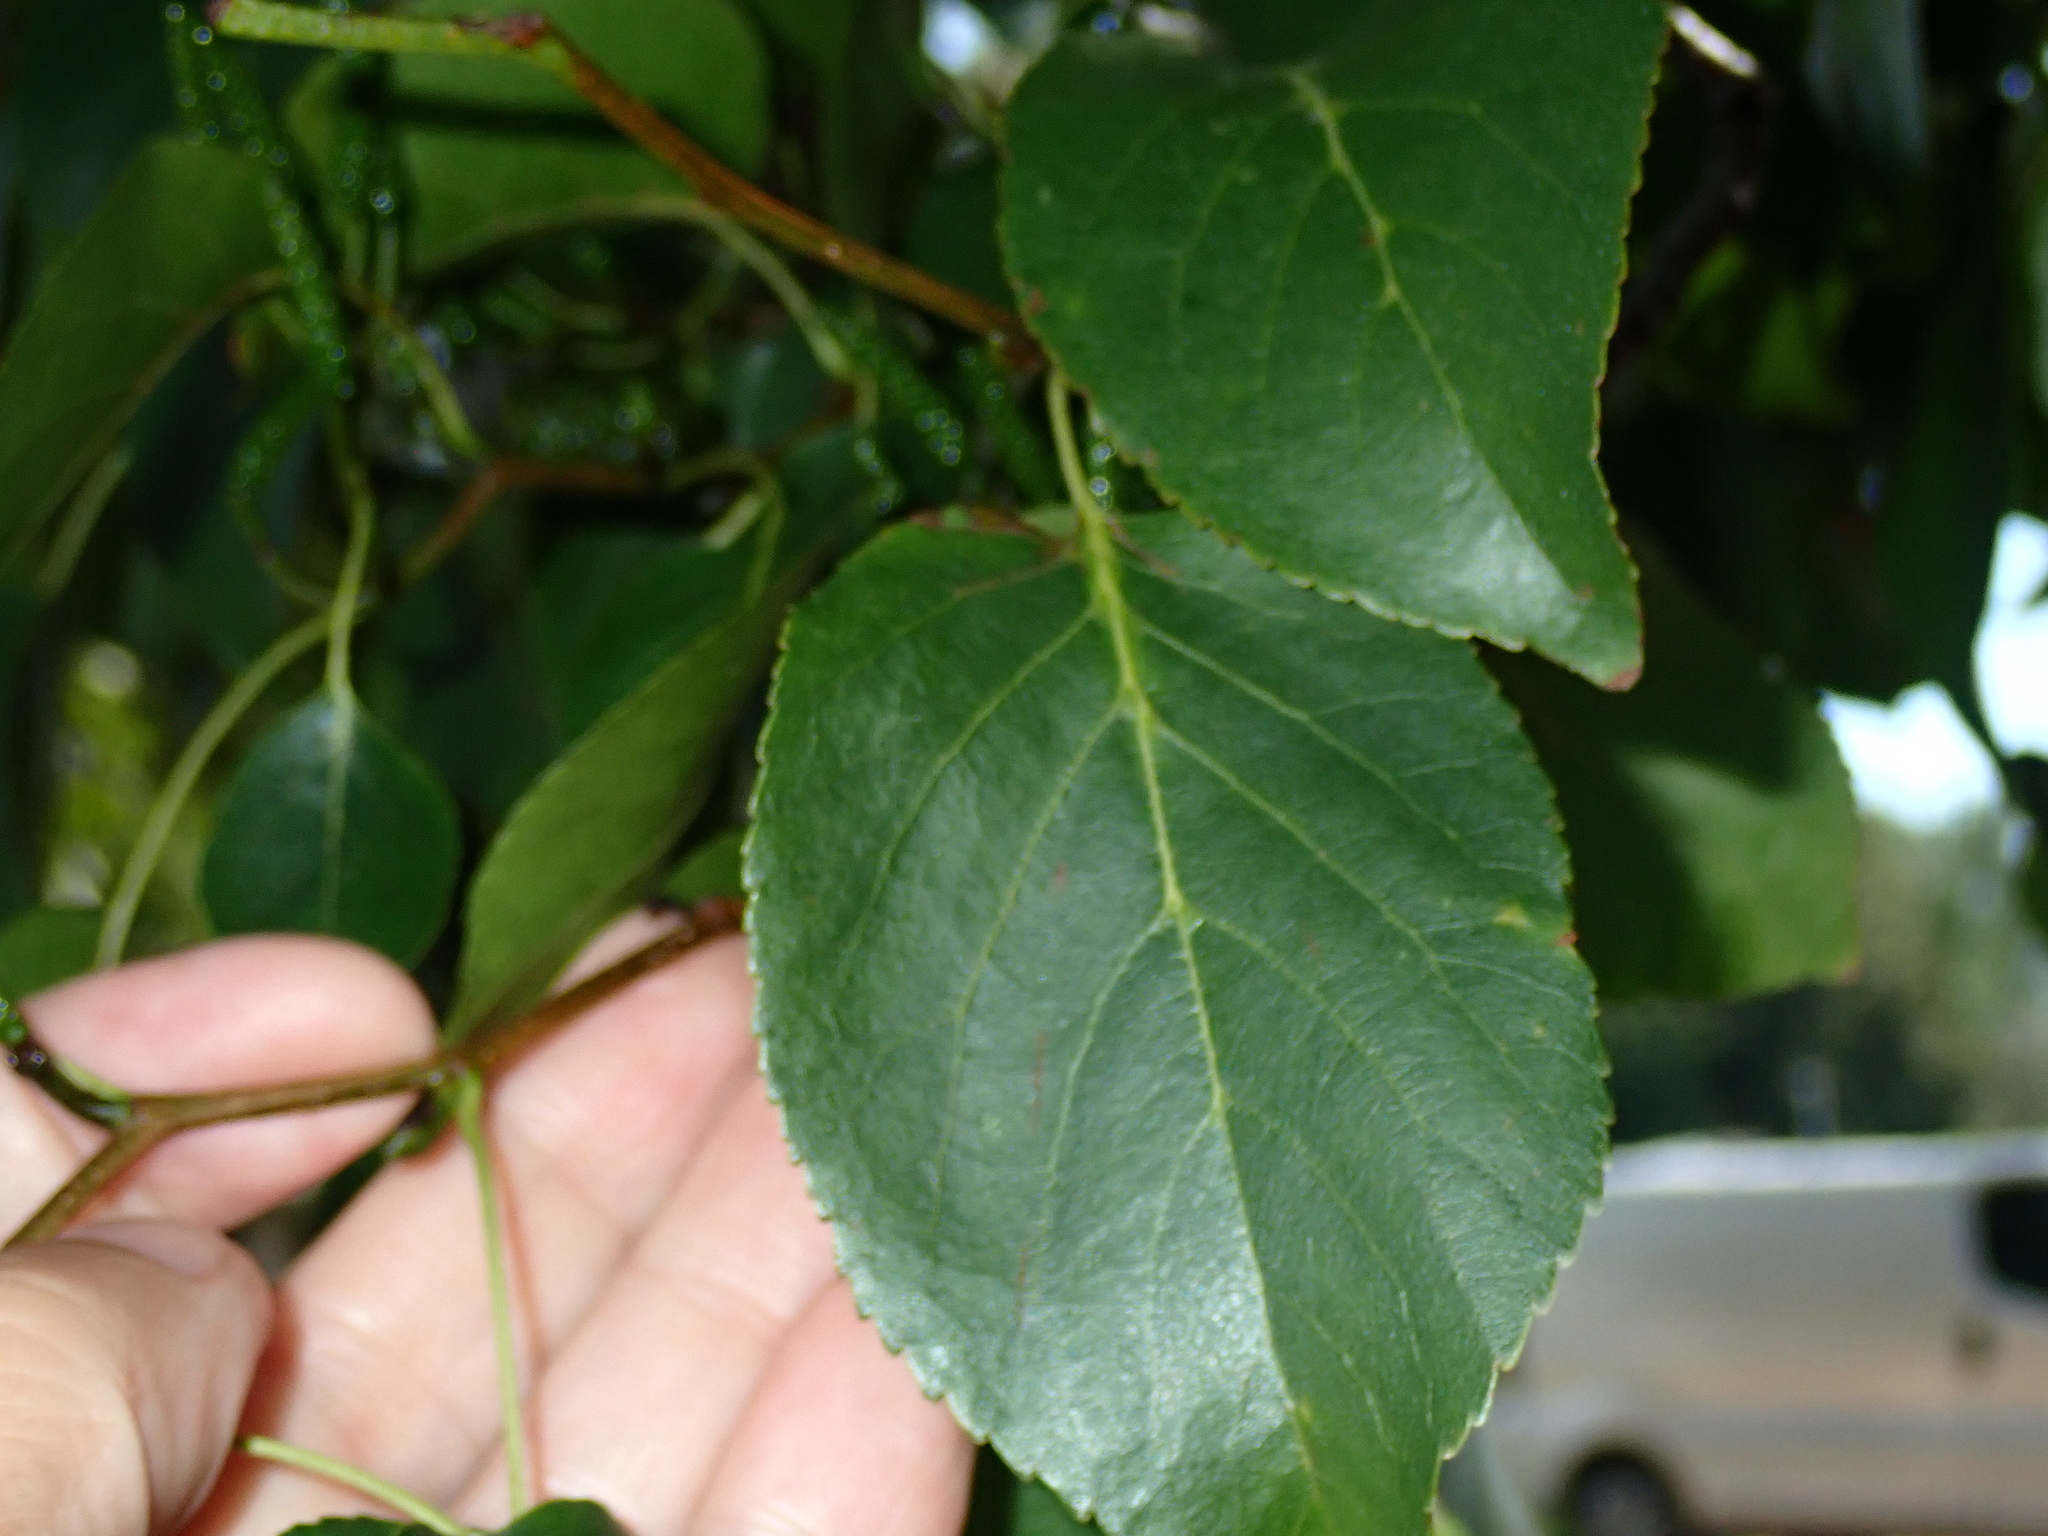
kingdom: Plantae
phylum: Tracheophyta
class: Magnoliopsida
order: Fagales
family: Betulaceae
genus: Alnus
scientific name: Alnus cordata
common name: Italian alder
